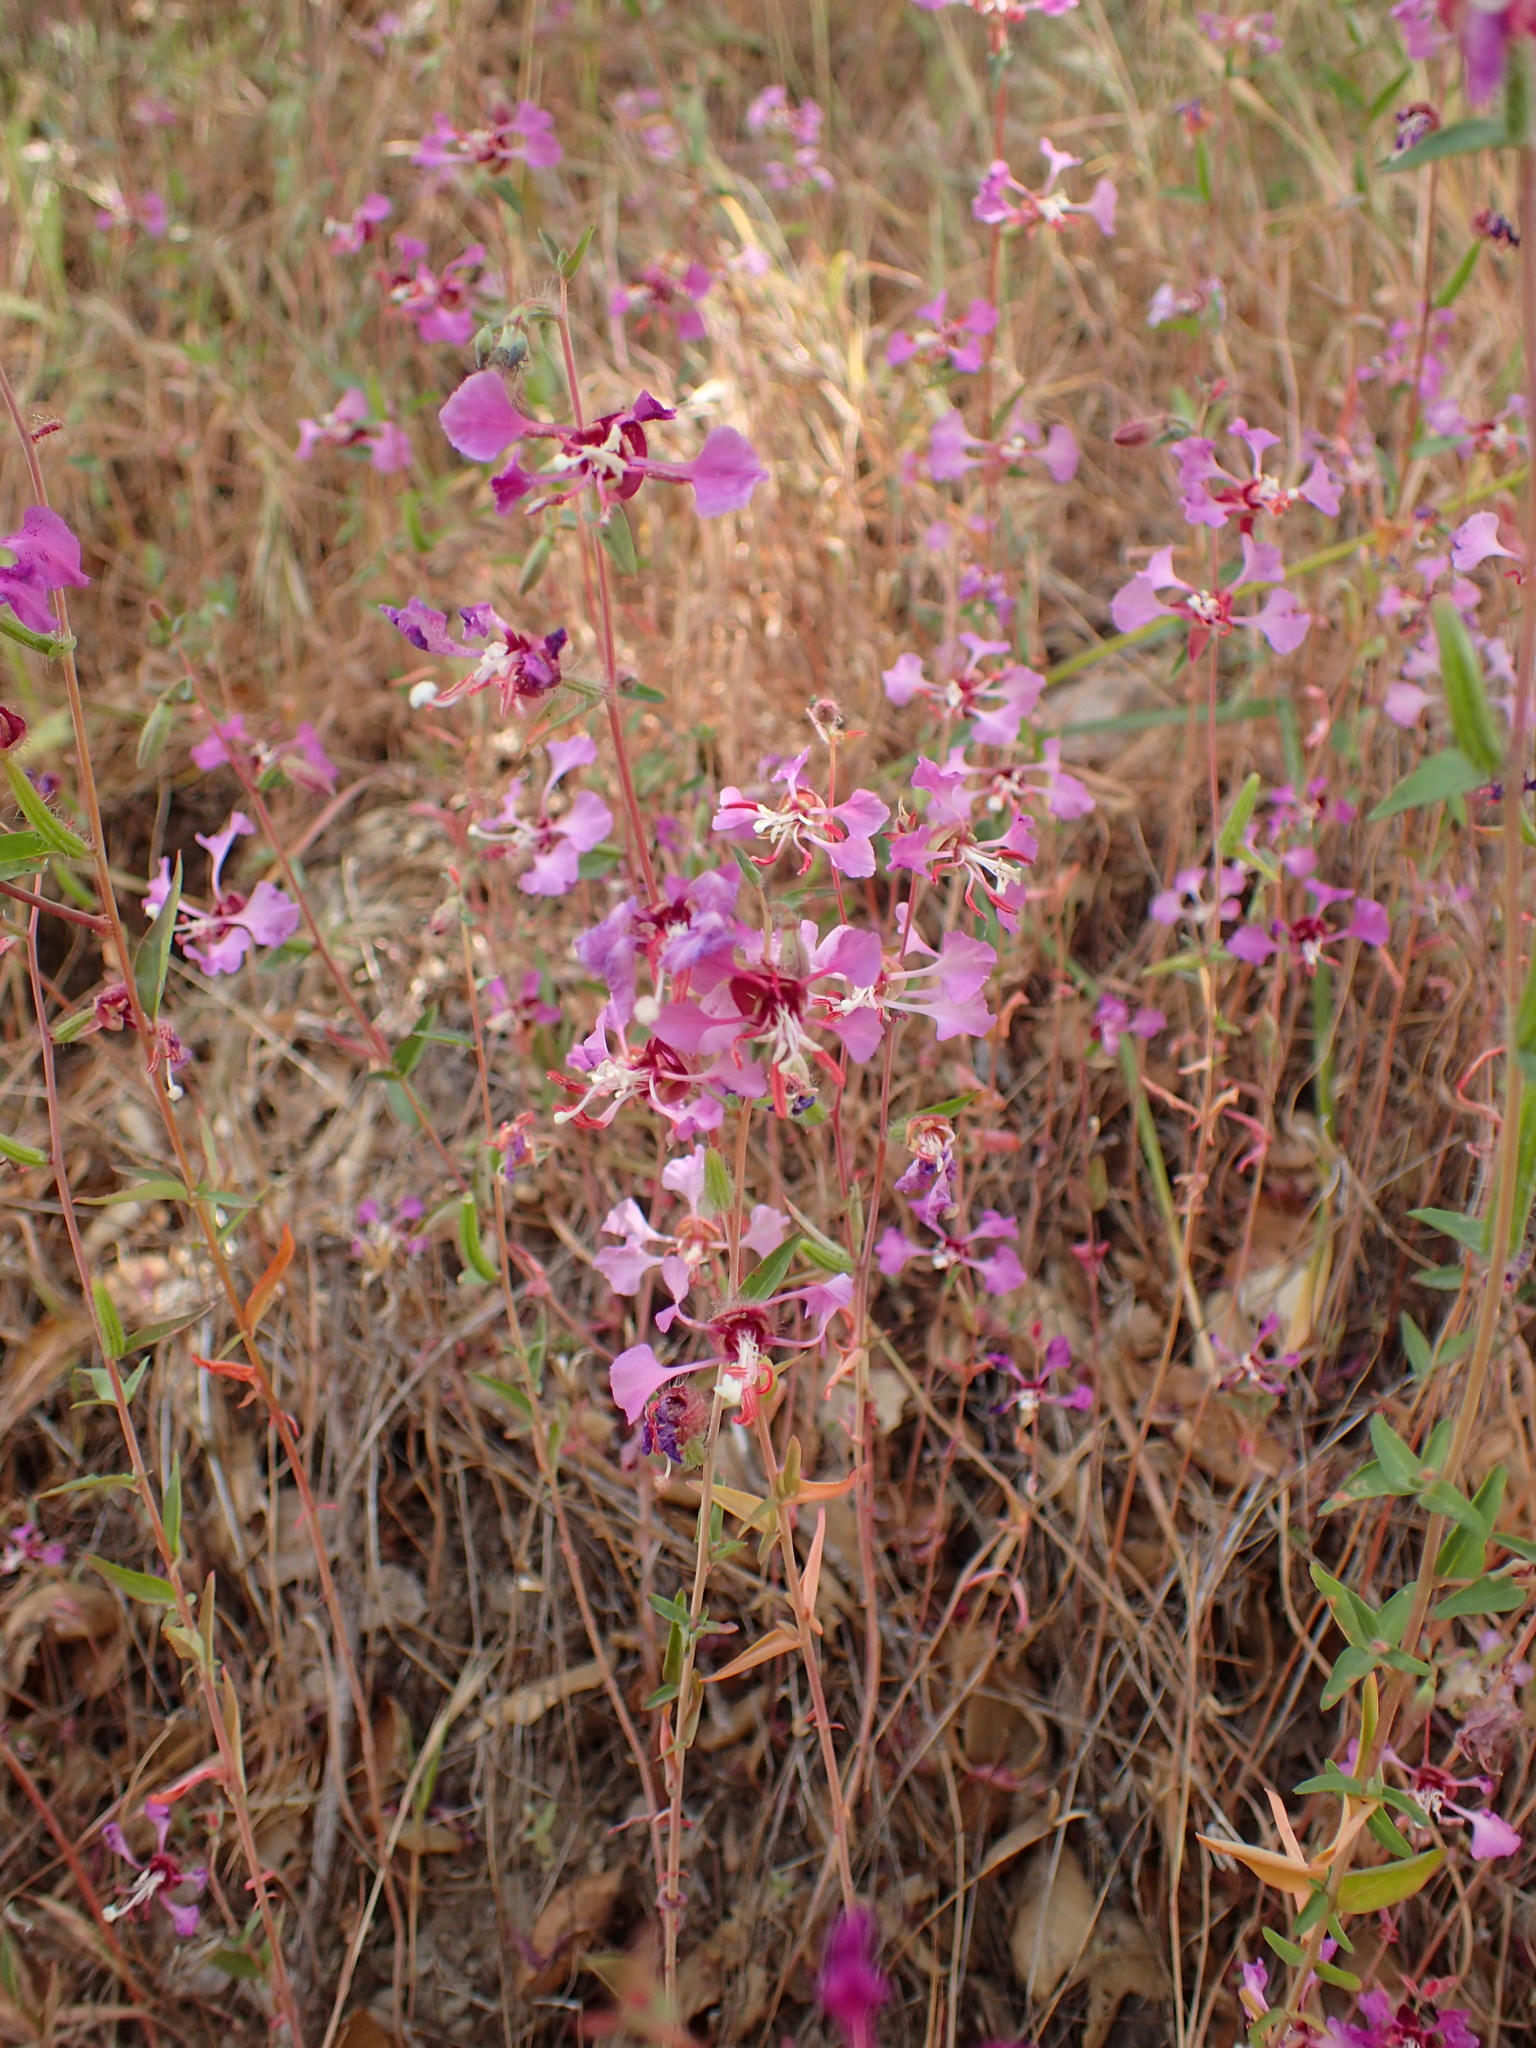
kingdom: Plantae
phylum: Tracheophyta
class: Magnoliopsida
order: Myrtales
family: Onagraceae
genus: Clarkia
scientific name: Clarkia unguiculata
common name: Clarkia
